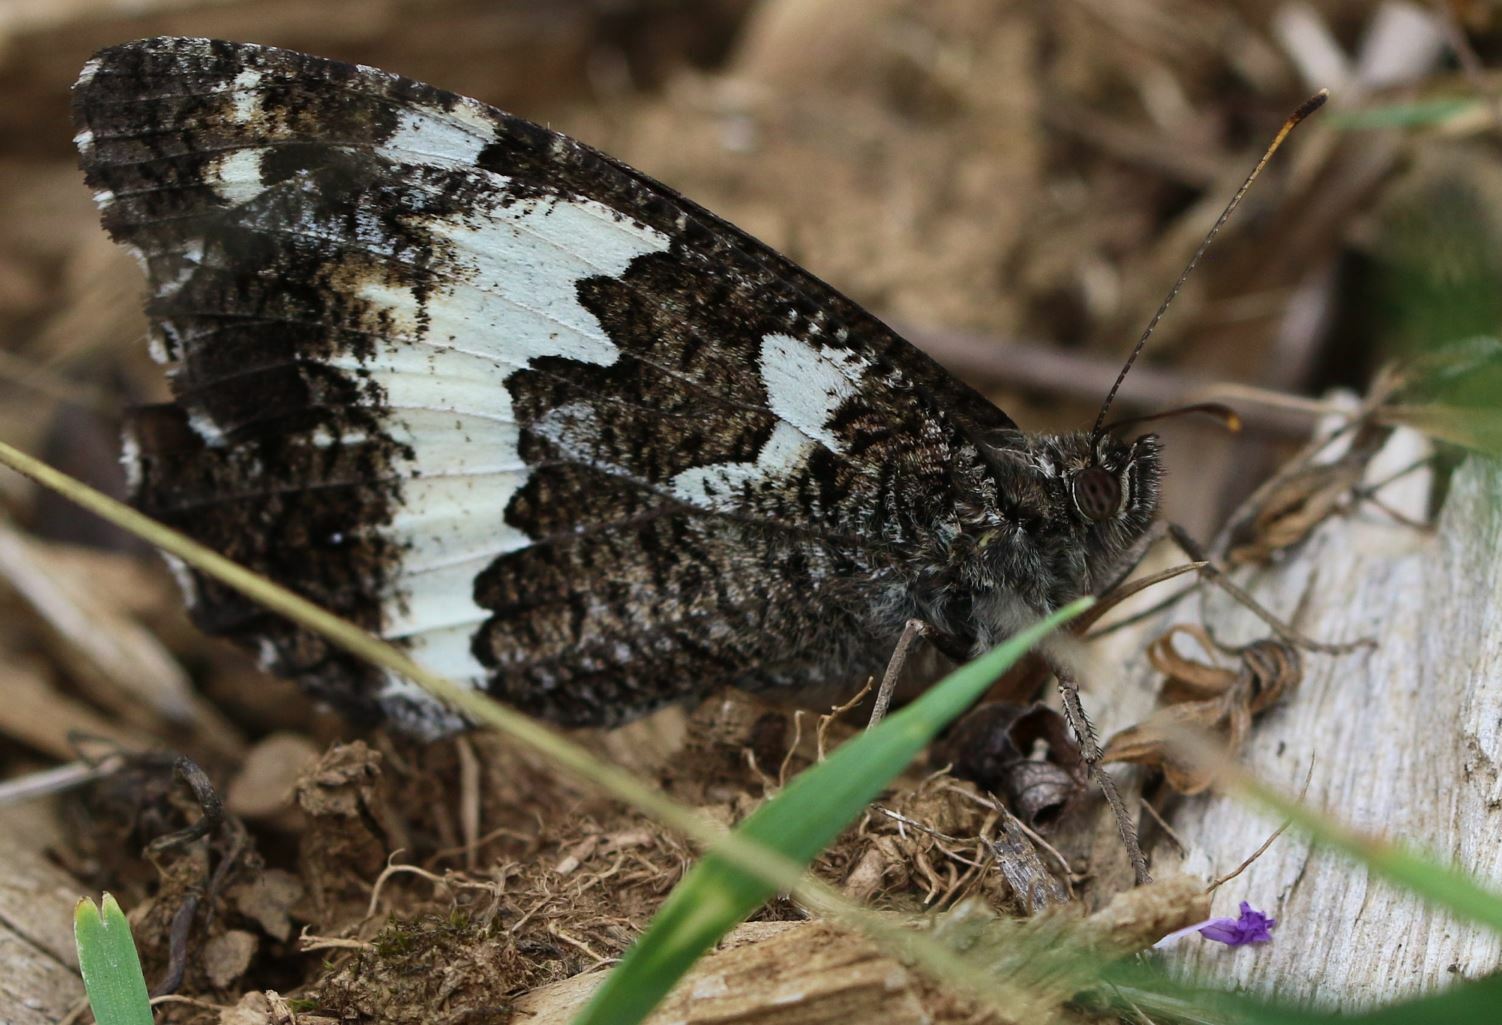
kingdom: Animalia
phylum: Arthropoda
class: Insecta
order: Lepidoptera
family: Lycaenidae
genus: Loweia
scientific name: Loweia tityrus
